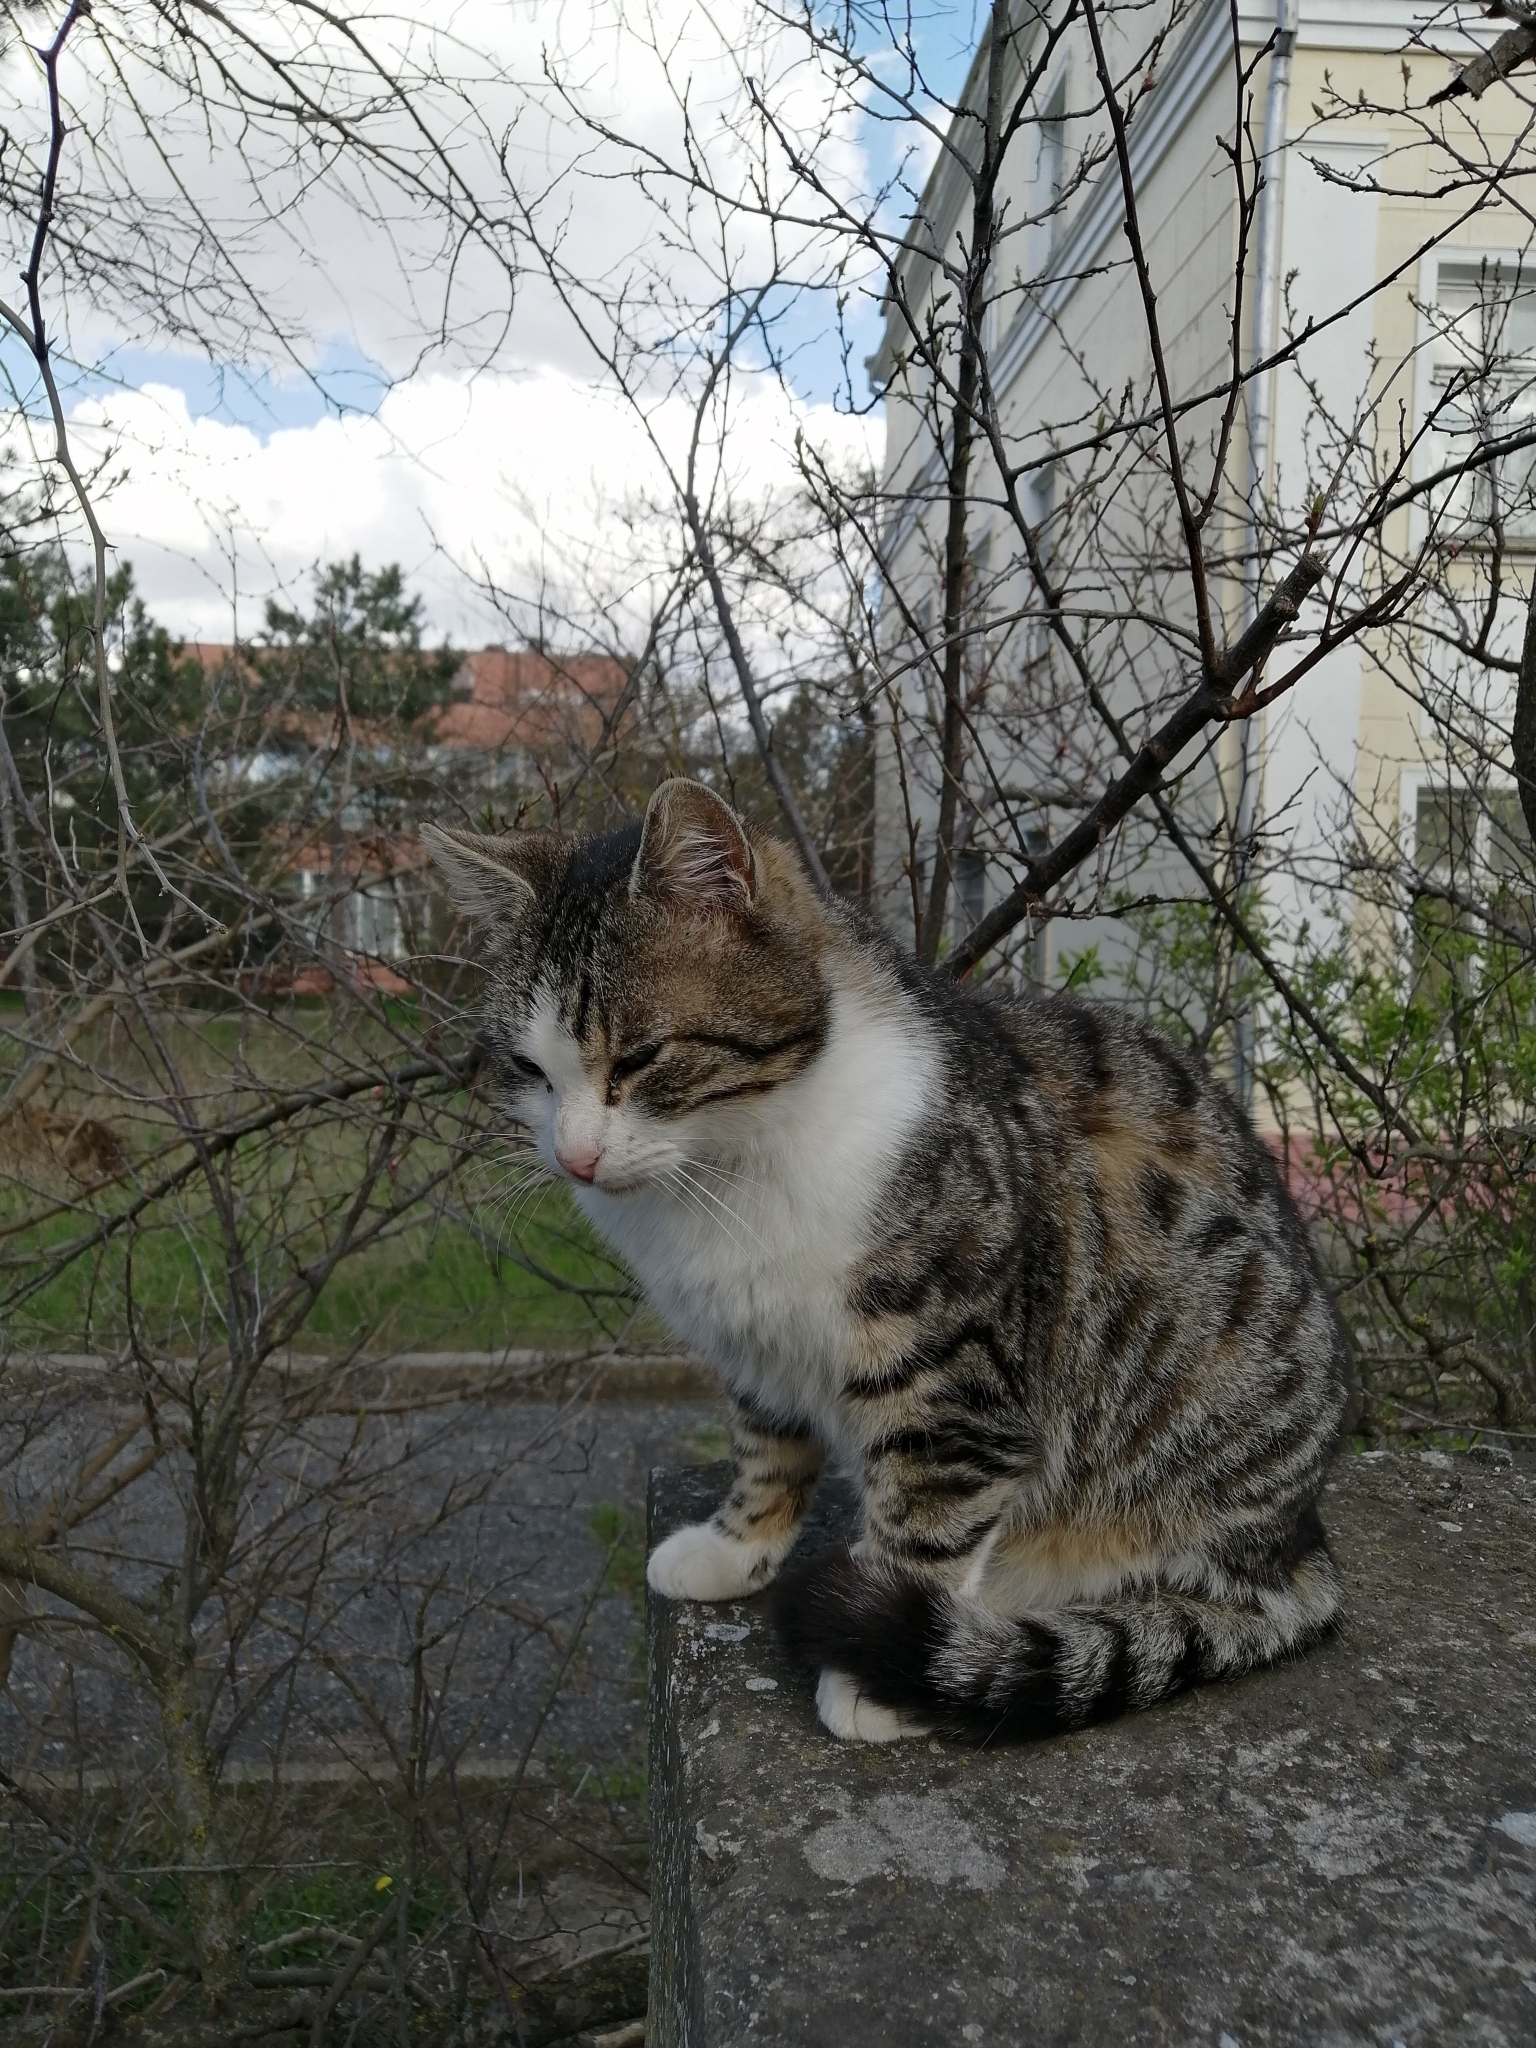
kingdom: Animalia
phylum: Chordata
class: Mammalia
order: Carnivora
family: Felidae
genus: Felis
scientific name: Felis catus
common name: Domestic cat
